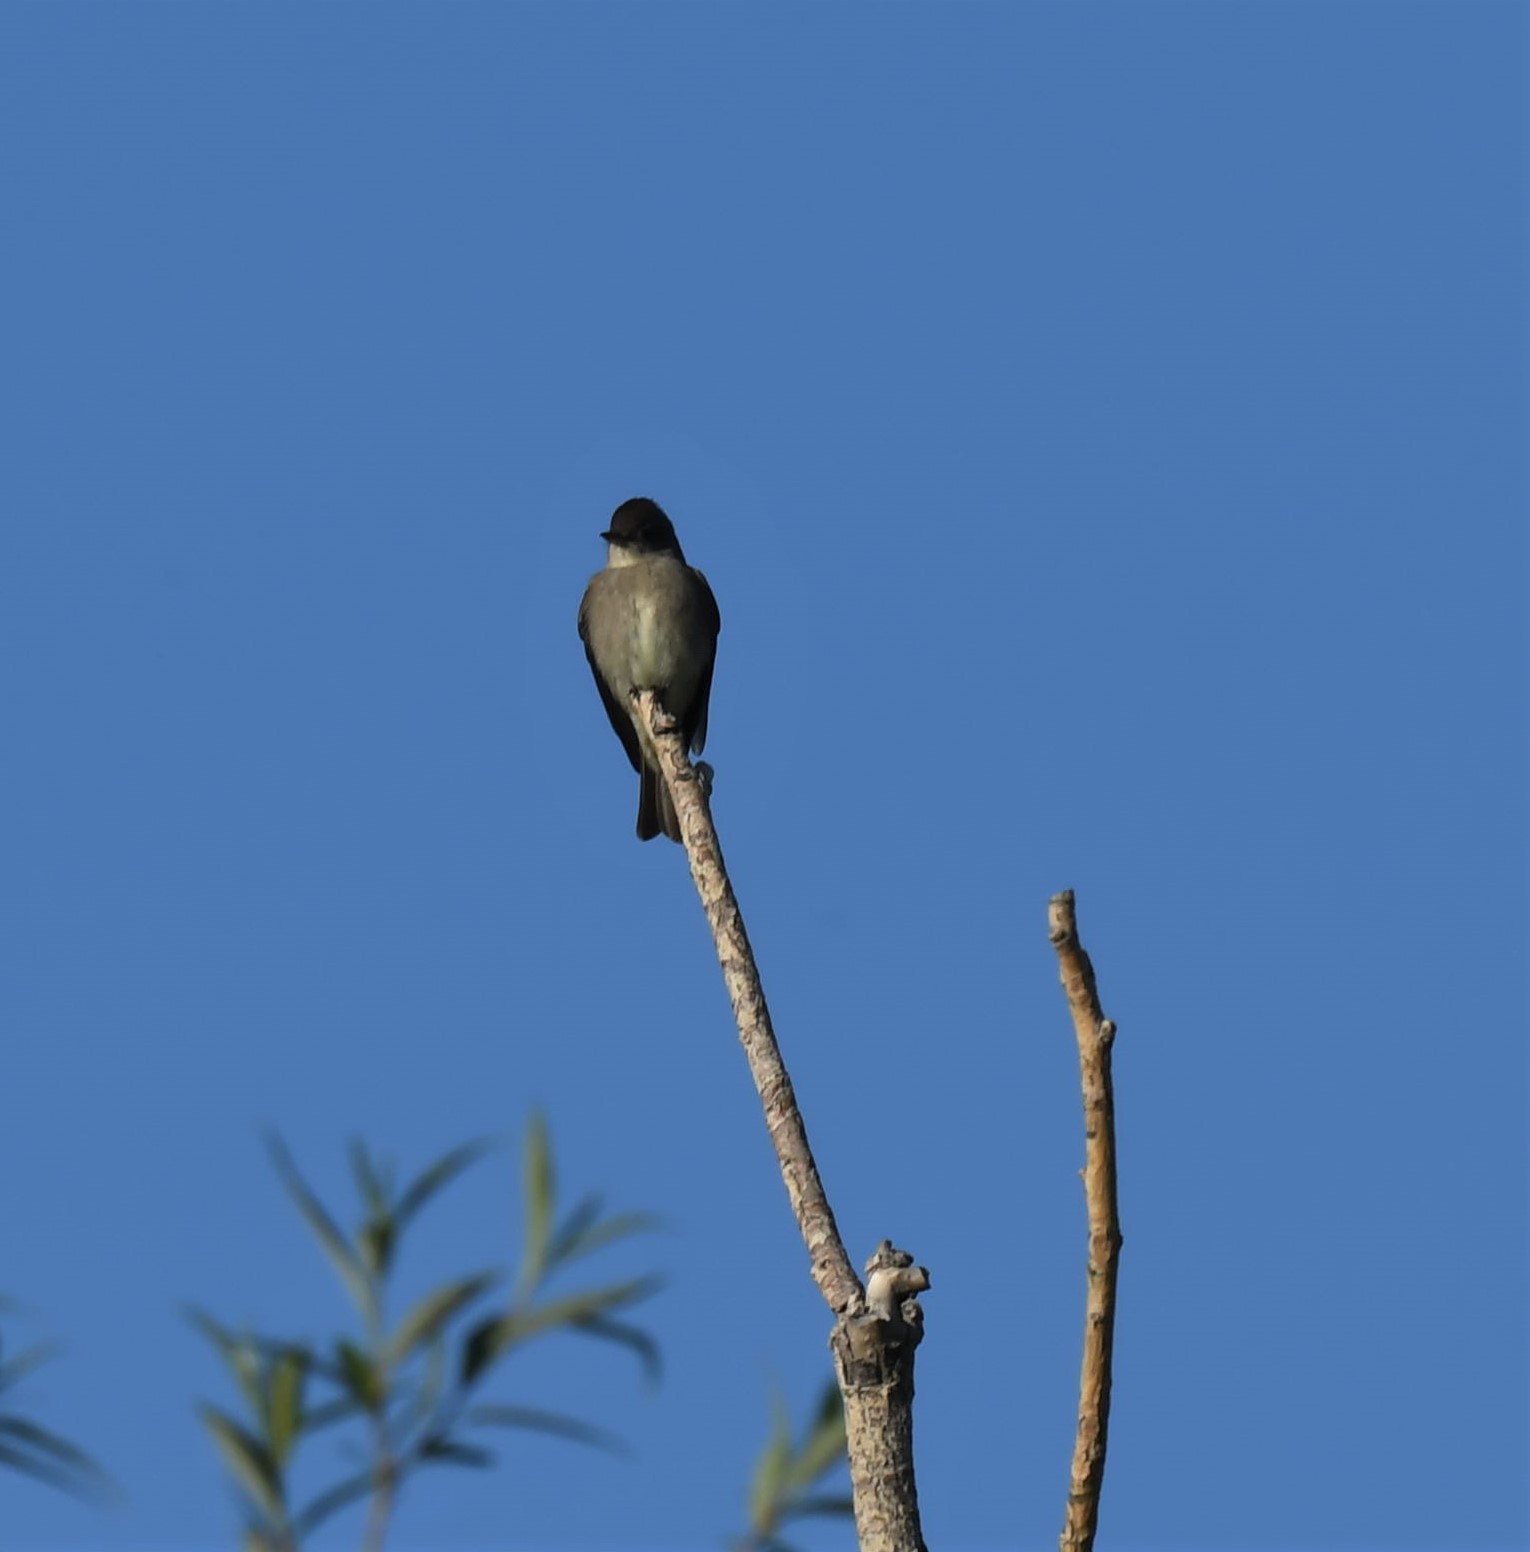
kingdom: Animalia
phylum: Chordata
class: Aves
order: Passeriformes
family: Tyrannidae
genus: Contopus
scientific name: Contopus cooperi
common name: Olive-sided flycatcher
